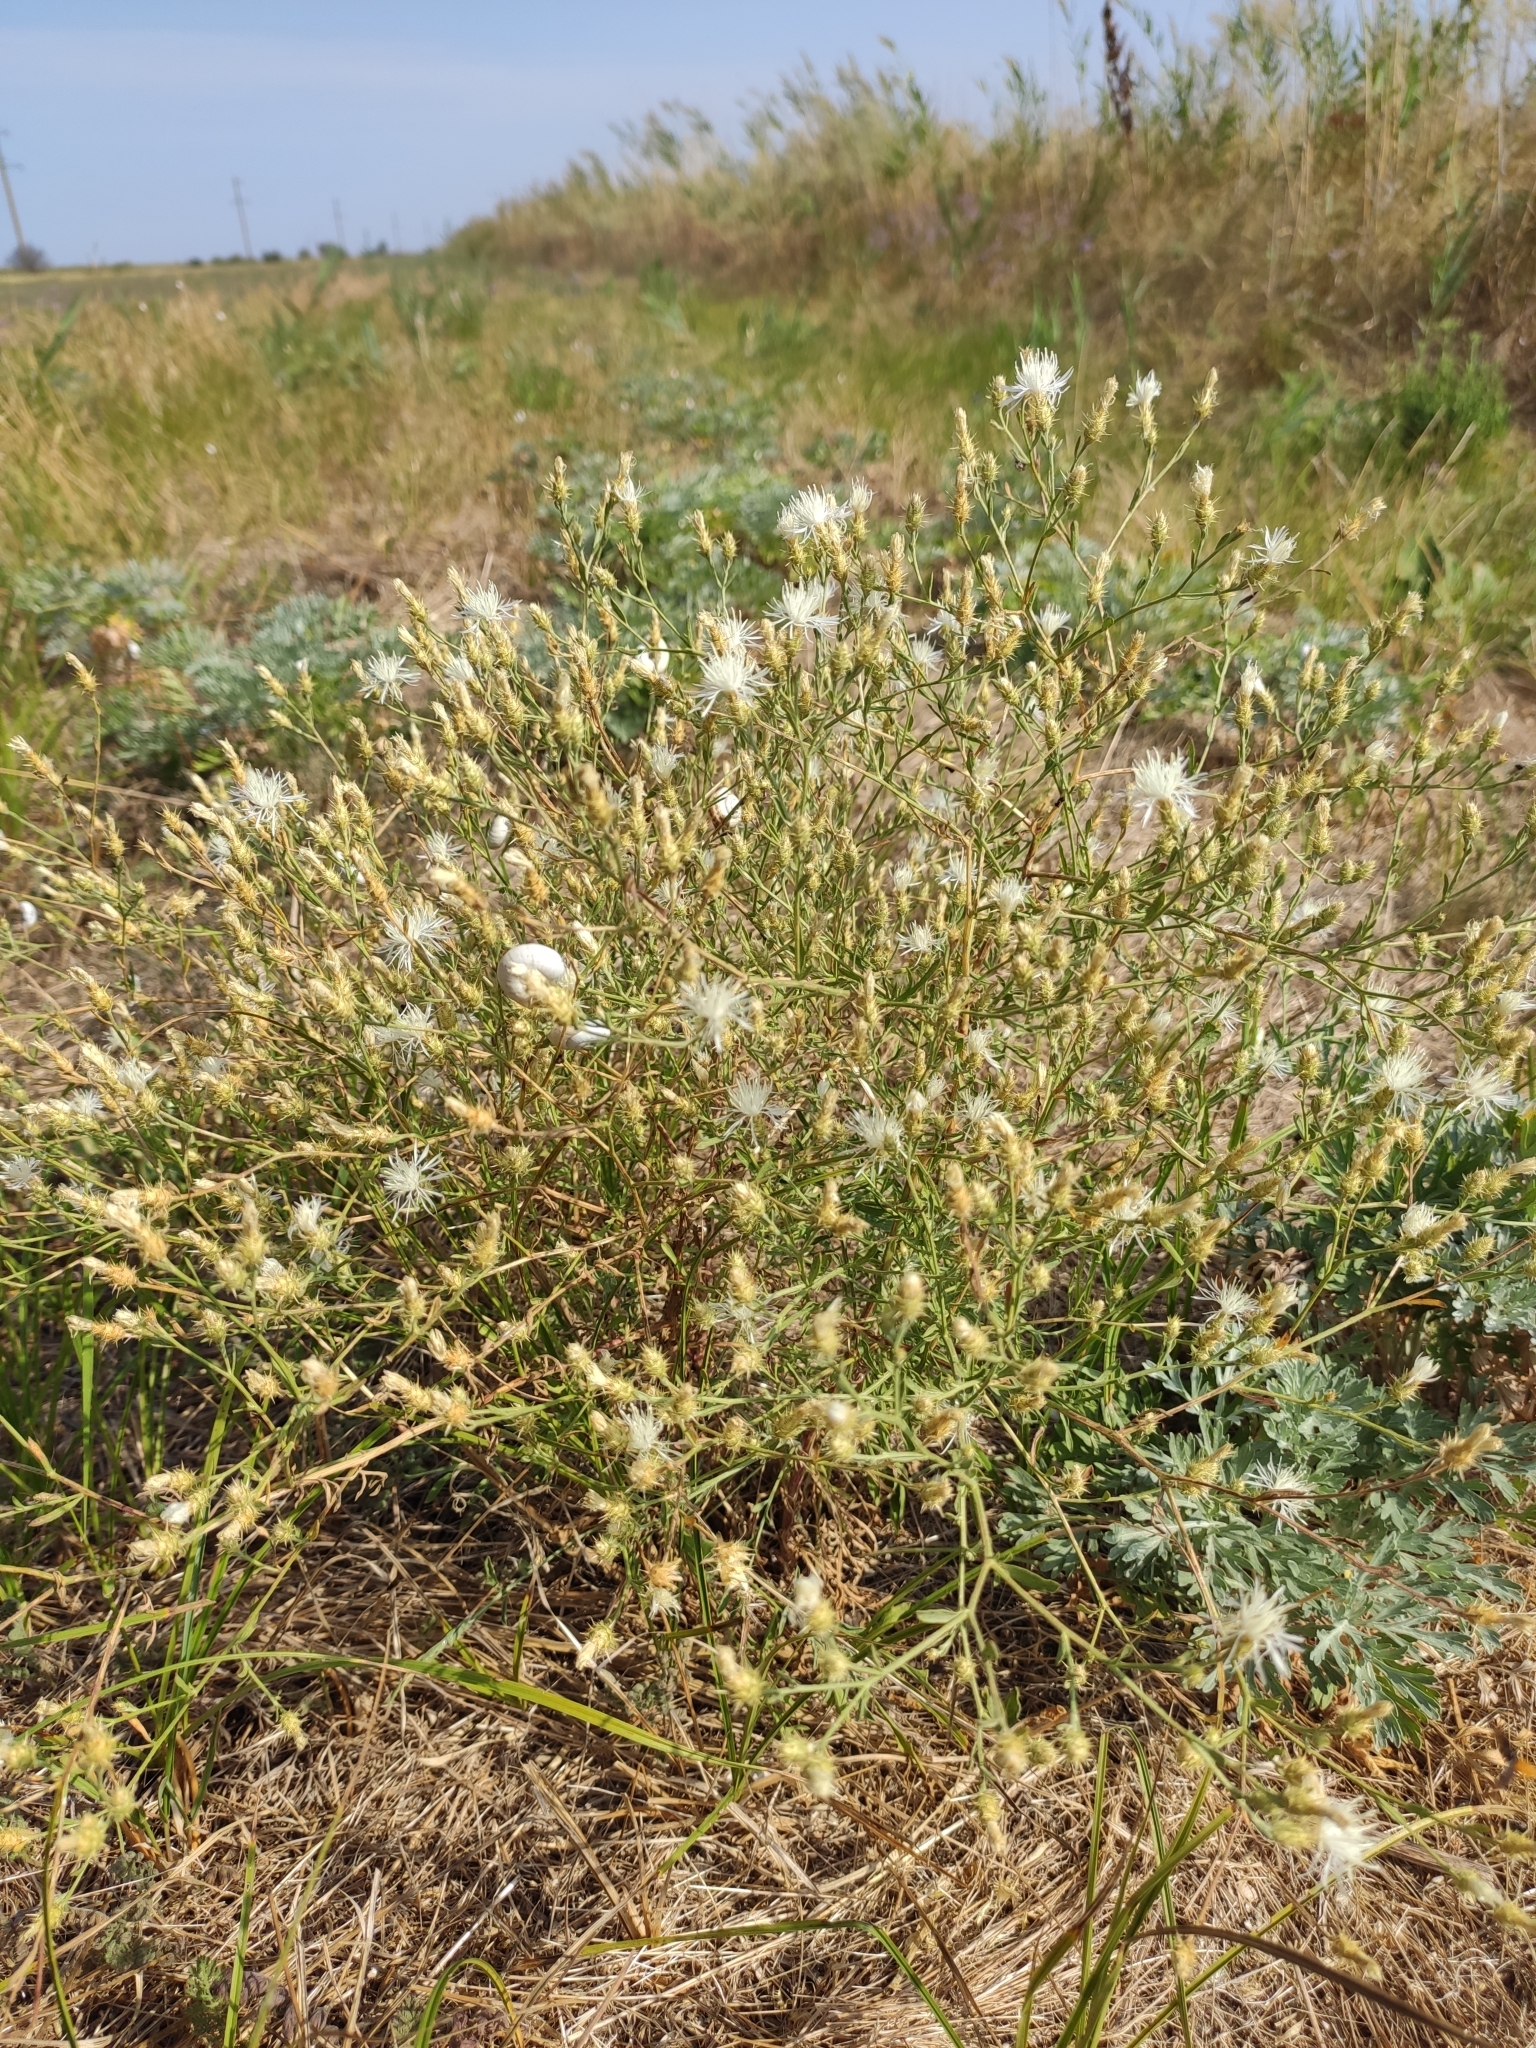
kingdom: Plantae
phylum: Tracheophyta
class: Magnoliopsida
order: Asterales
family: Asteraceae
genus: Centaurea
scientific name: Centaurea diffusa
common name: Diffuse knapweed
